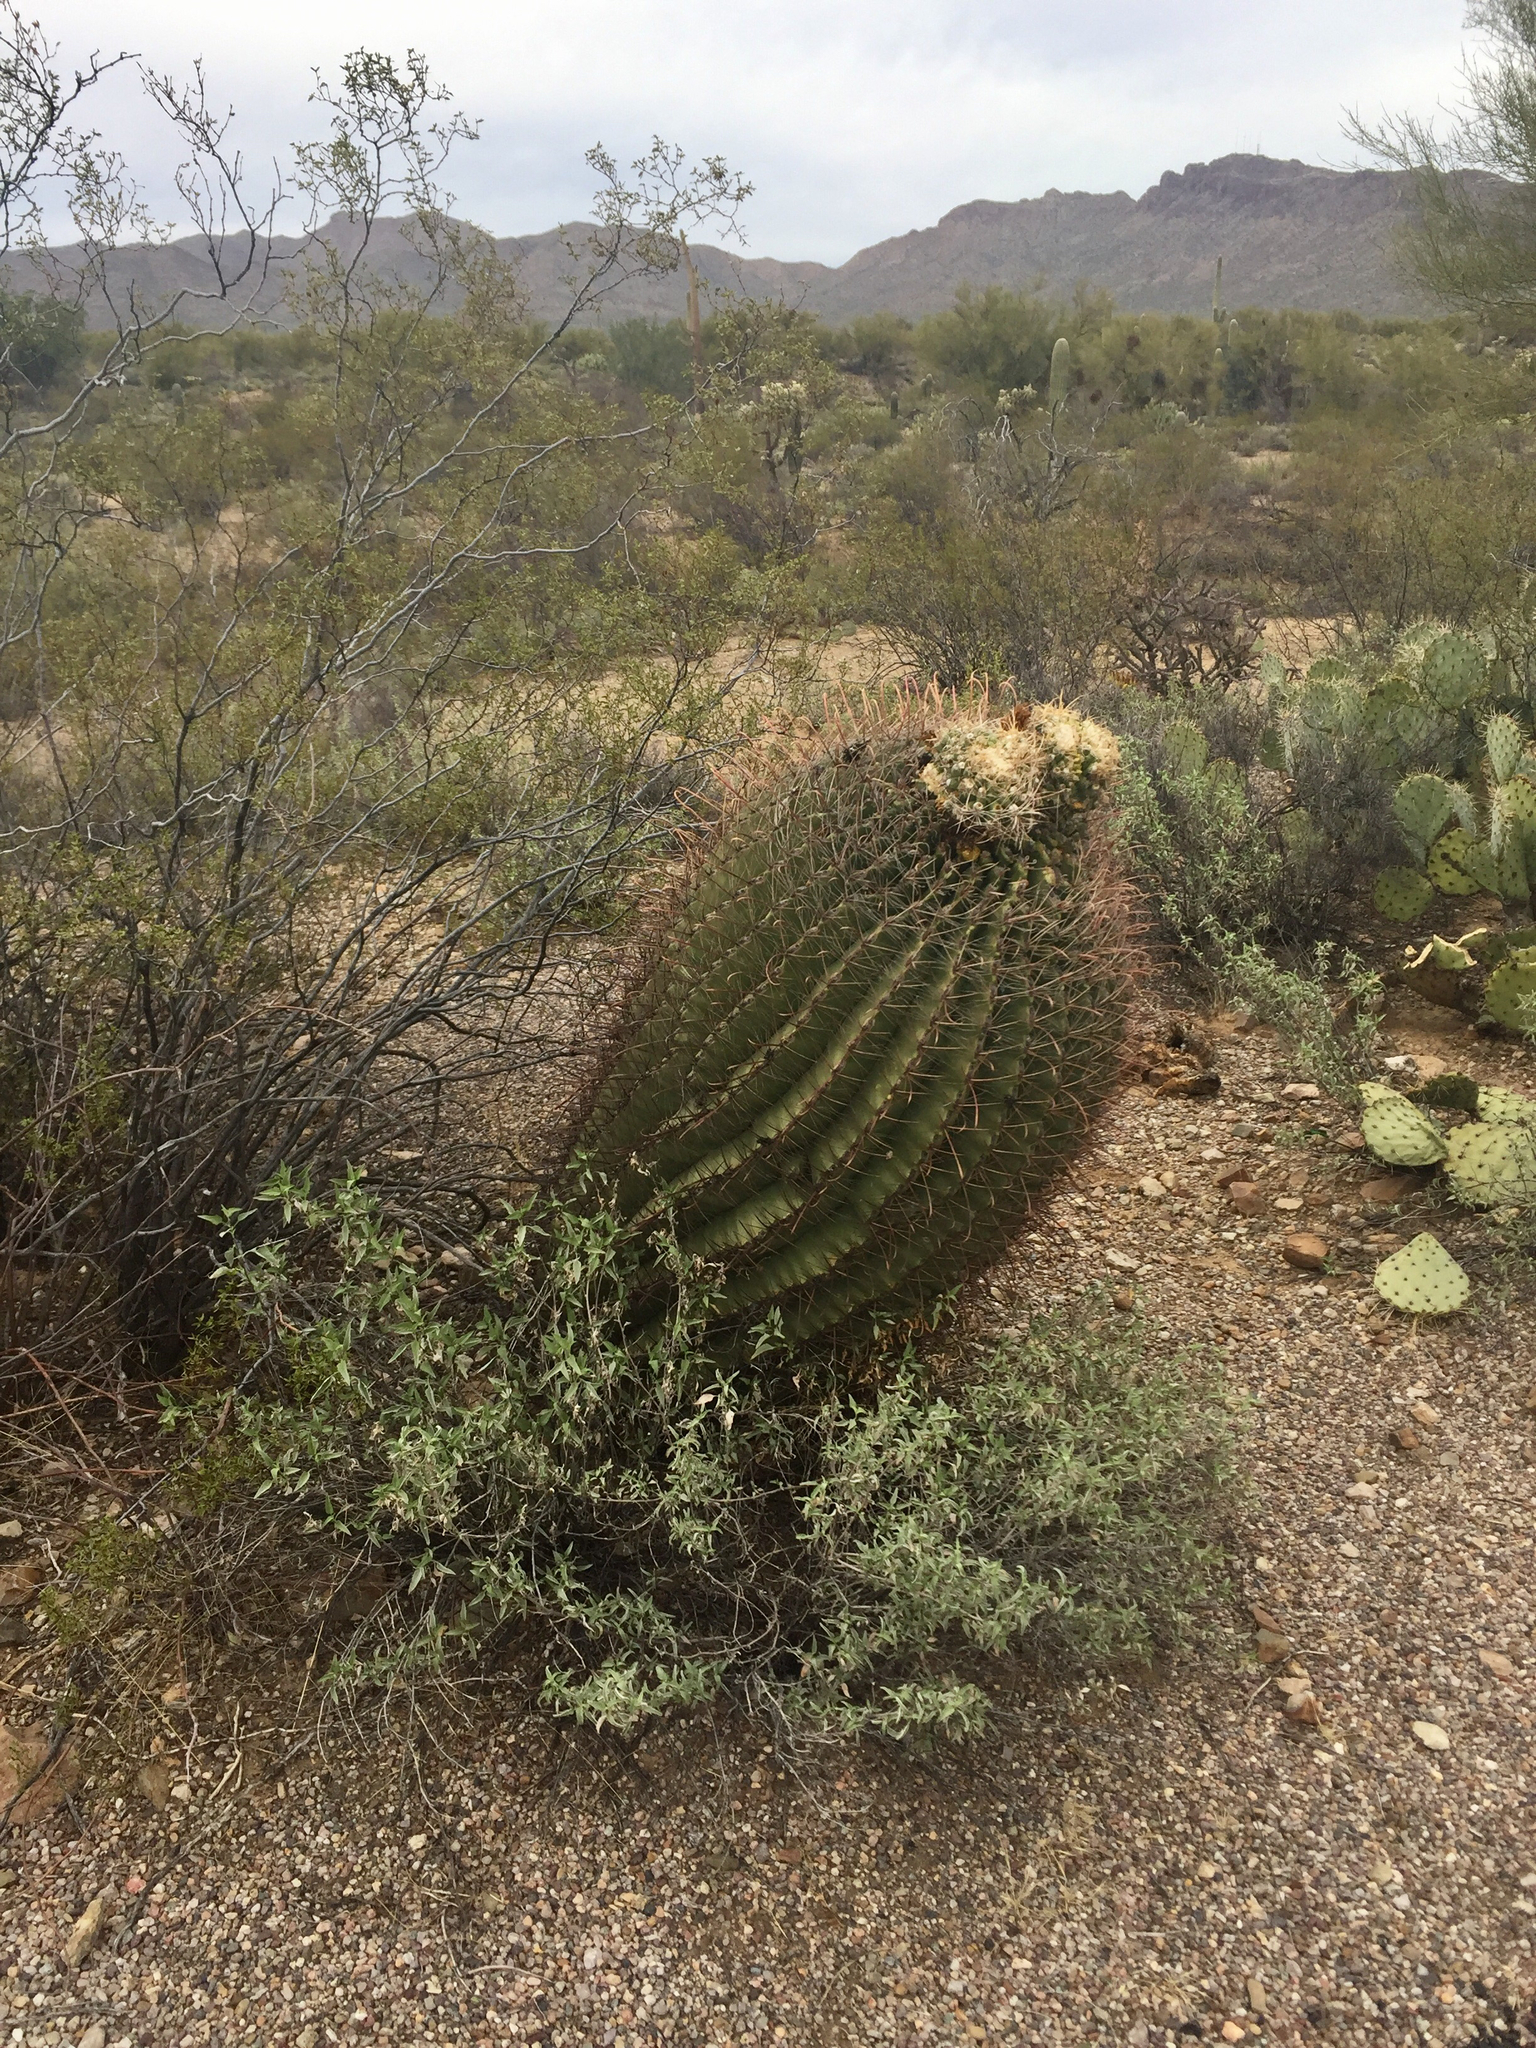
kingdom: Plantae
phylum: Tracheophyta
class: Magnoliopsida
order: Caryophyllales
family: Cactaceae
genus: Ferocactus
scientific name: Ferocactus wislizeni
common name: Candy barrel cactus
